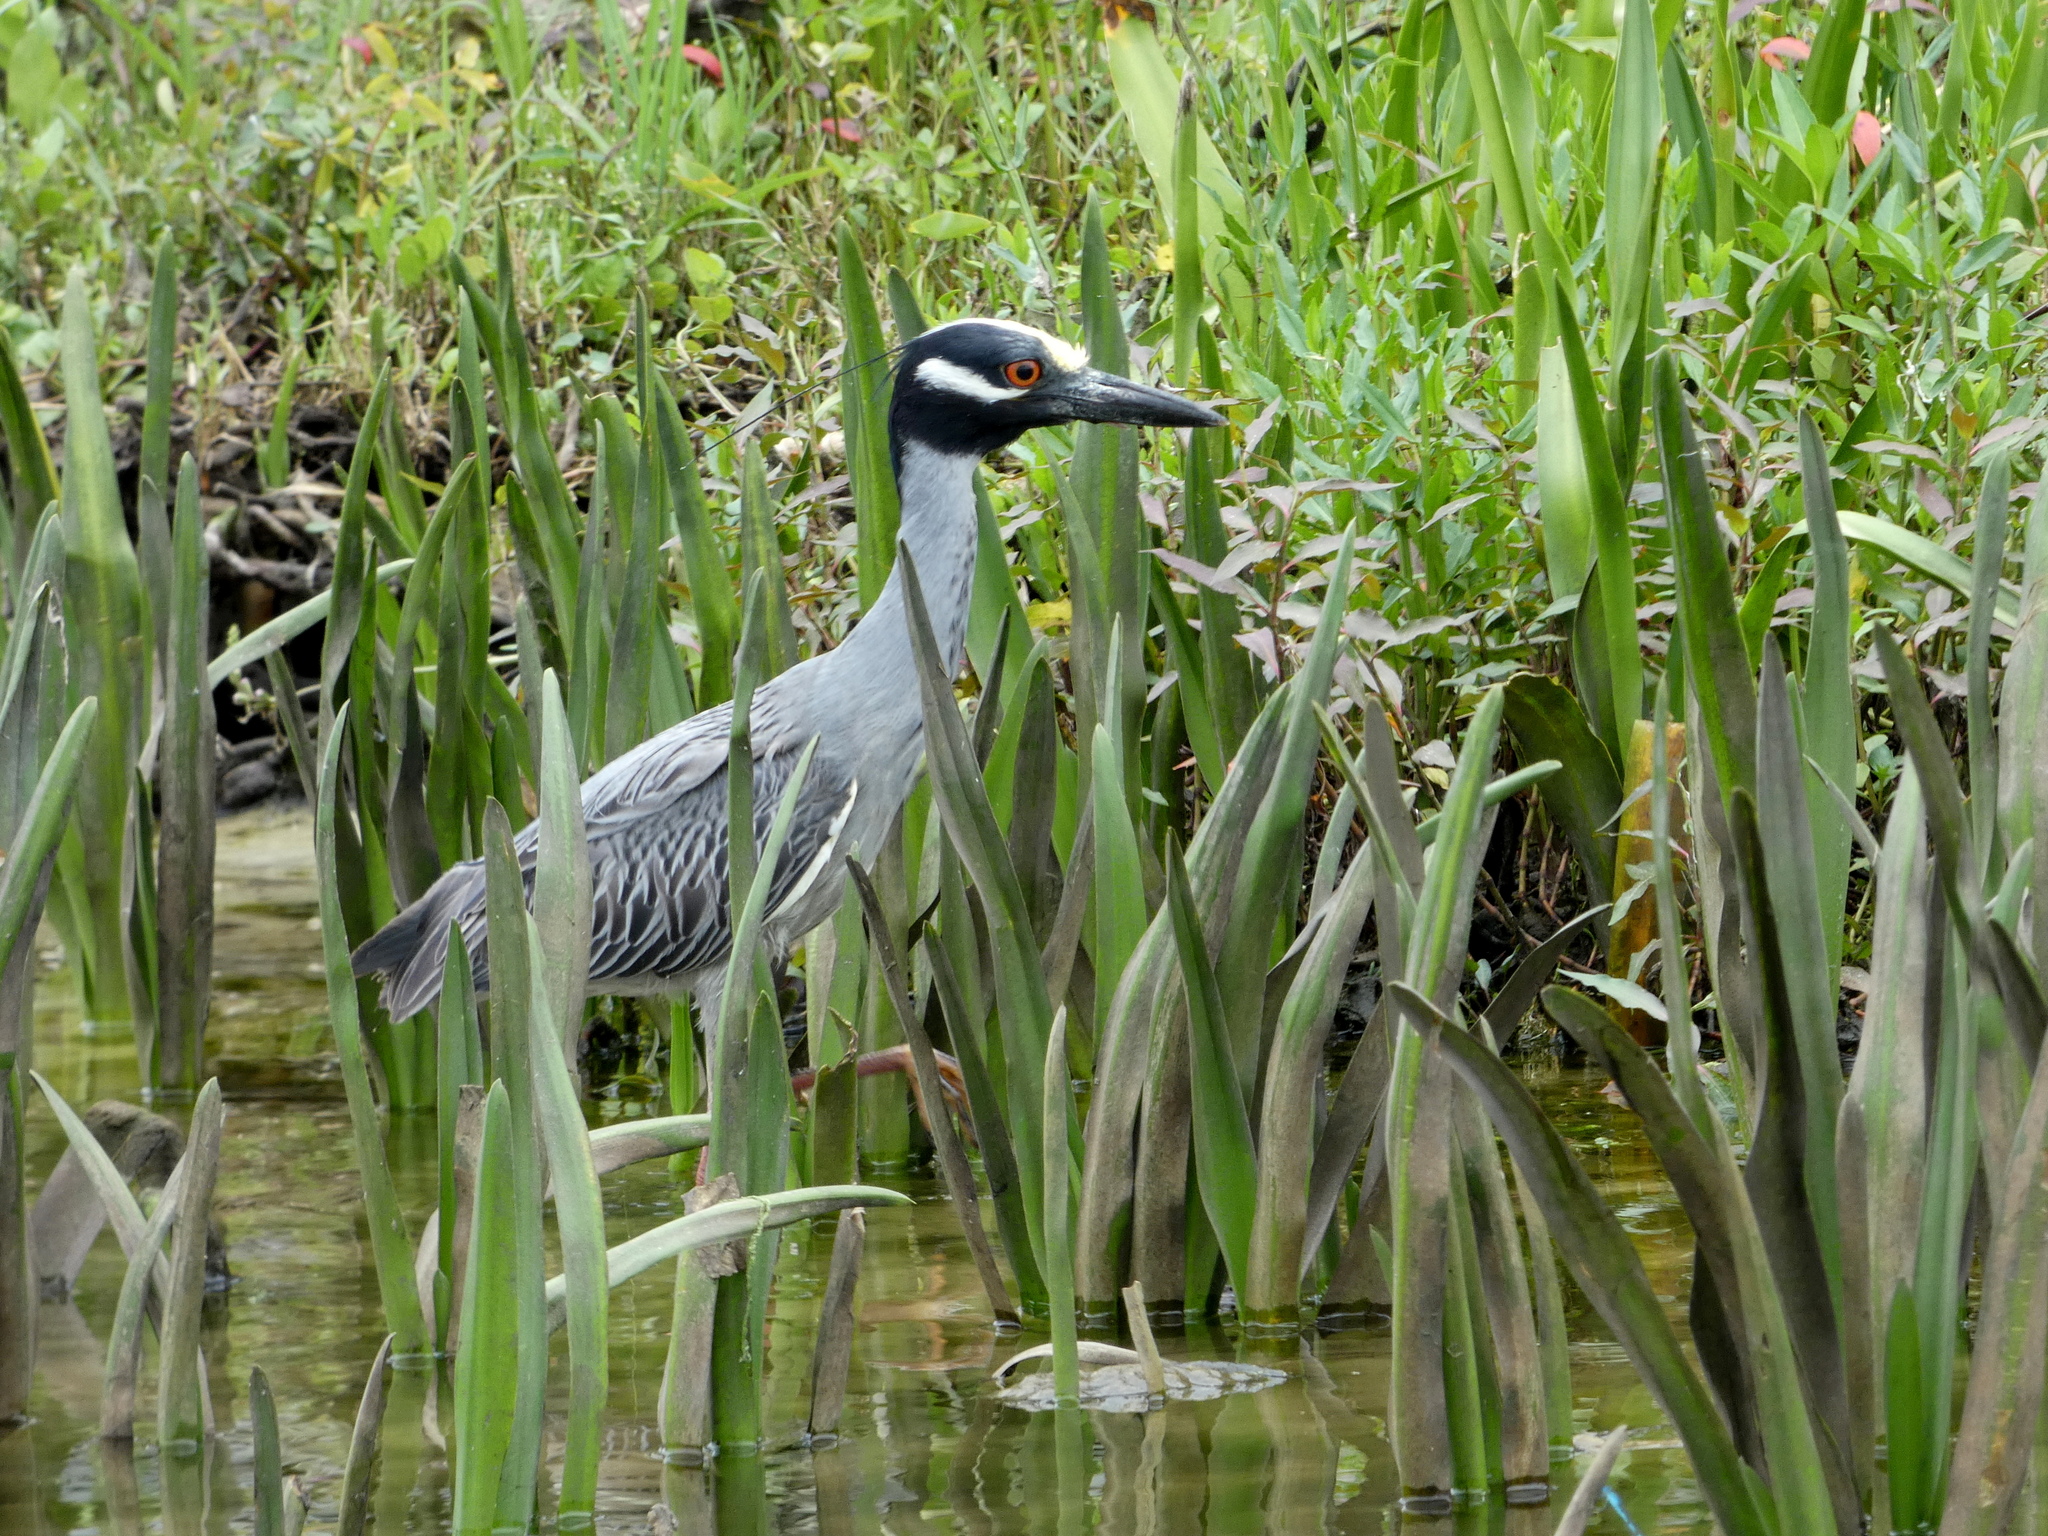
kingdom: Animalia
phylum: Chordata
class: Aves
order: Pelecaniformes
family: Ardeidae
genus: Nyctanassa
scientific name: Nyctanassa violacea
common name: Yellow-crowned night heron
